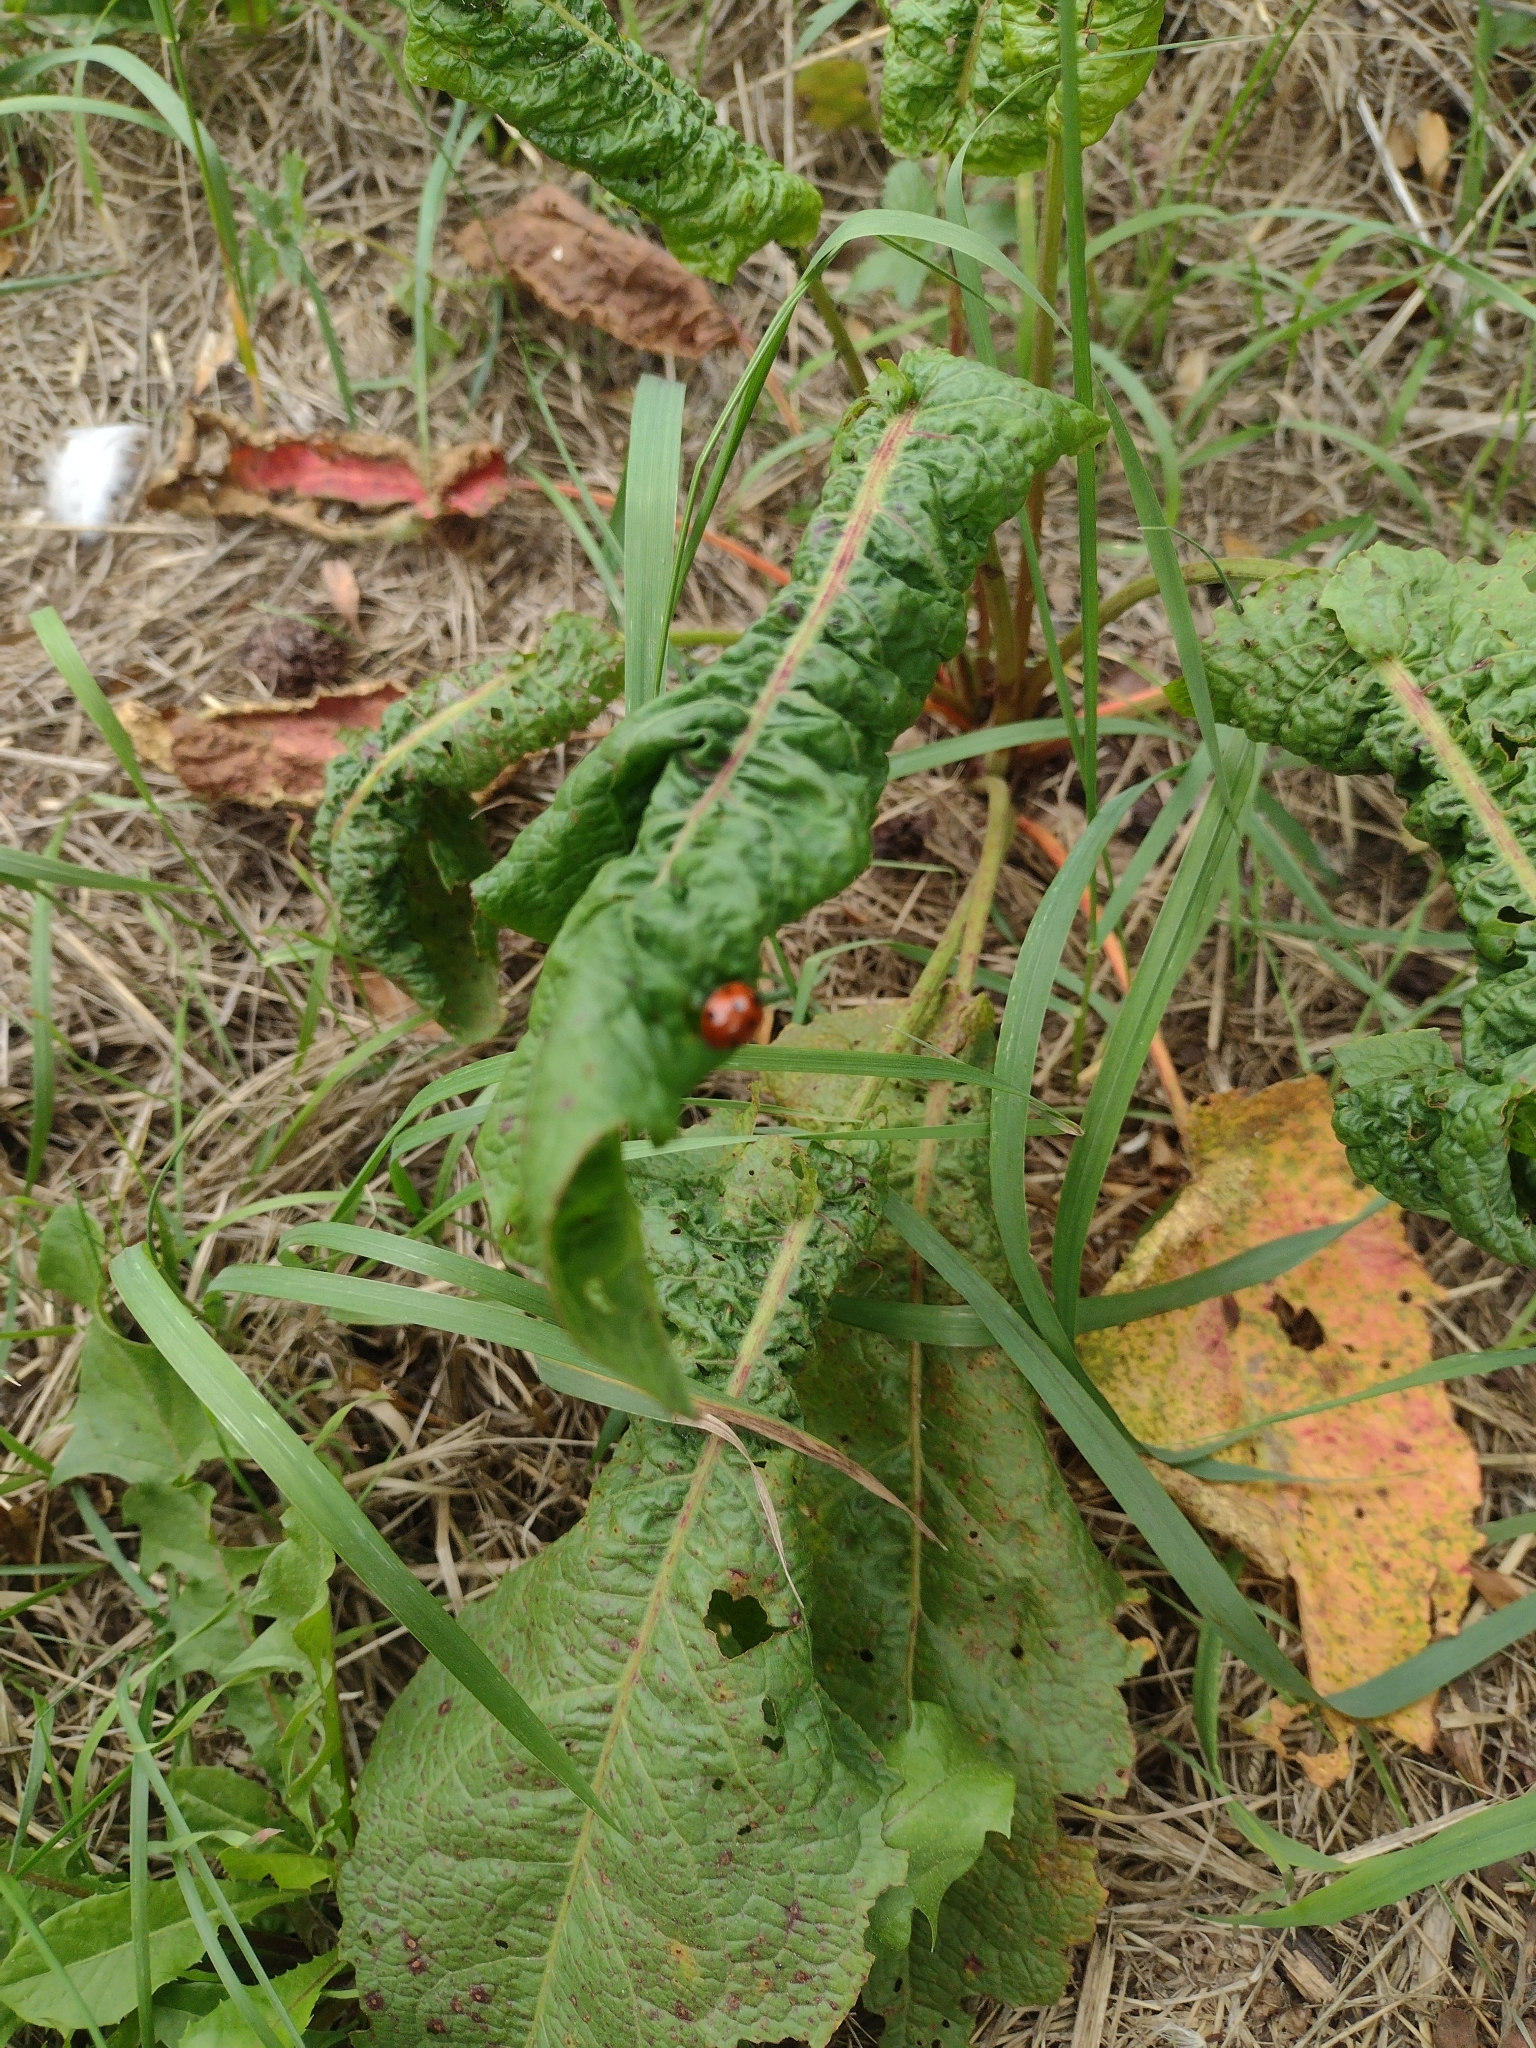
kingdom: Animalia
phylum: Arthropoda
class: Insecta
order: Coleoptera
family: Coccinellidae
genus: Coccinella
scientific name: Coccinella septempunctata
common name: Sevenspotted lady beetle
